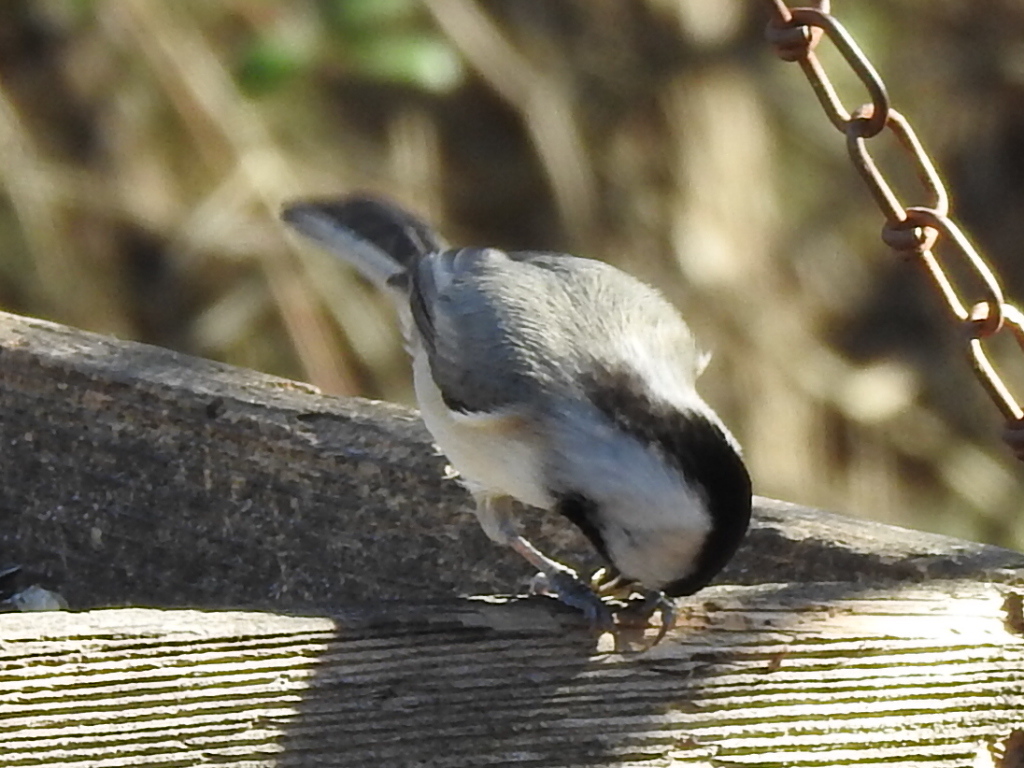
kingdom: Animalia
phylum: Chordata
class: Aves
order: Passeriformes
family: Paridae
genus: Poecile
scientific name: Poecile carolinensis
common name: Carolina chickadee
